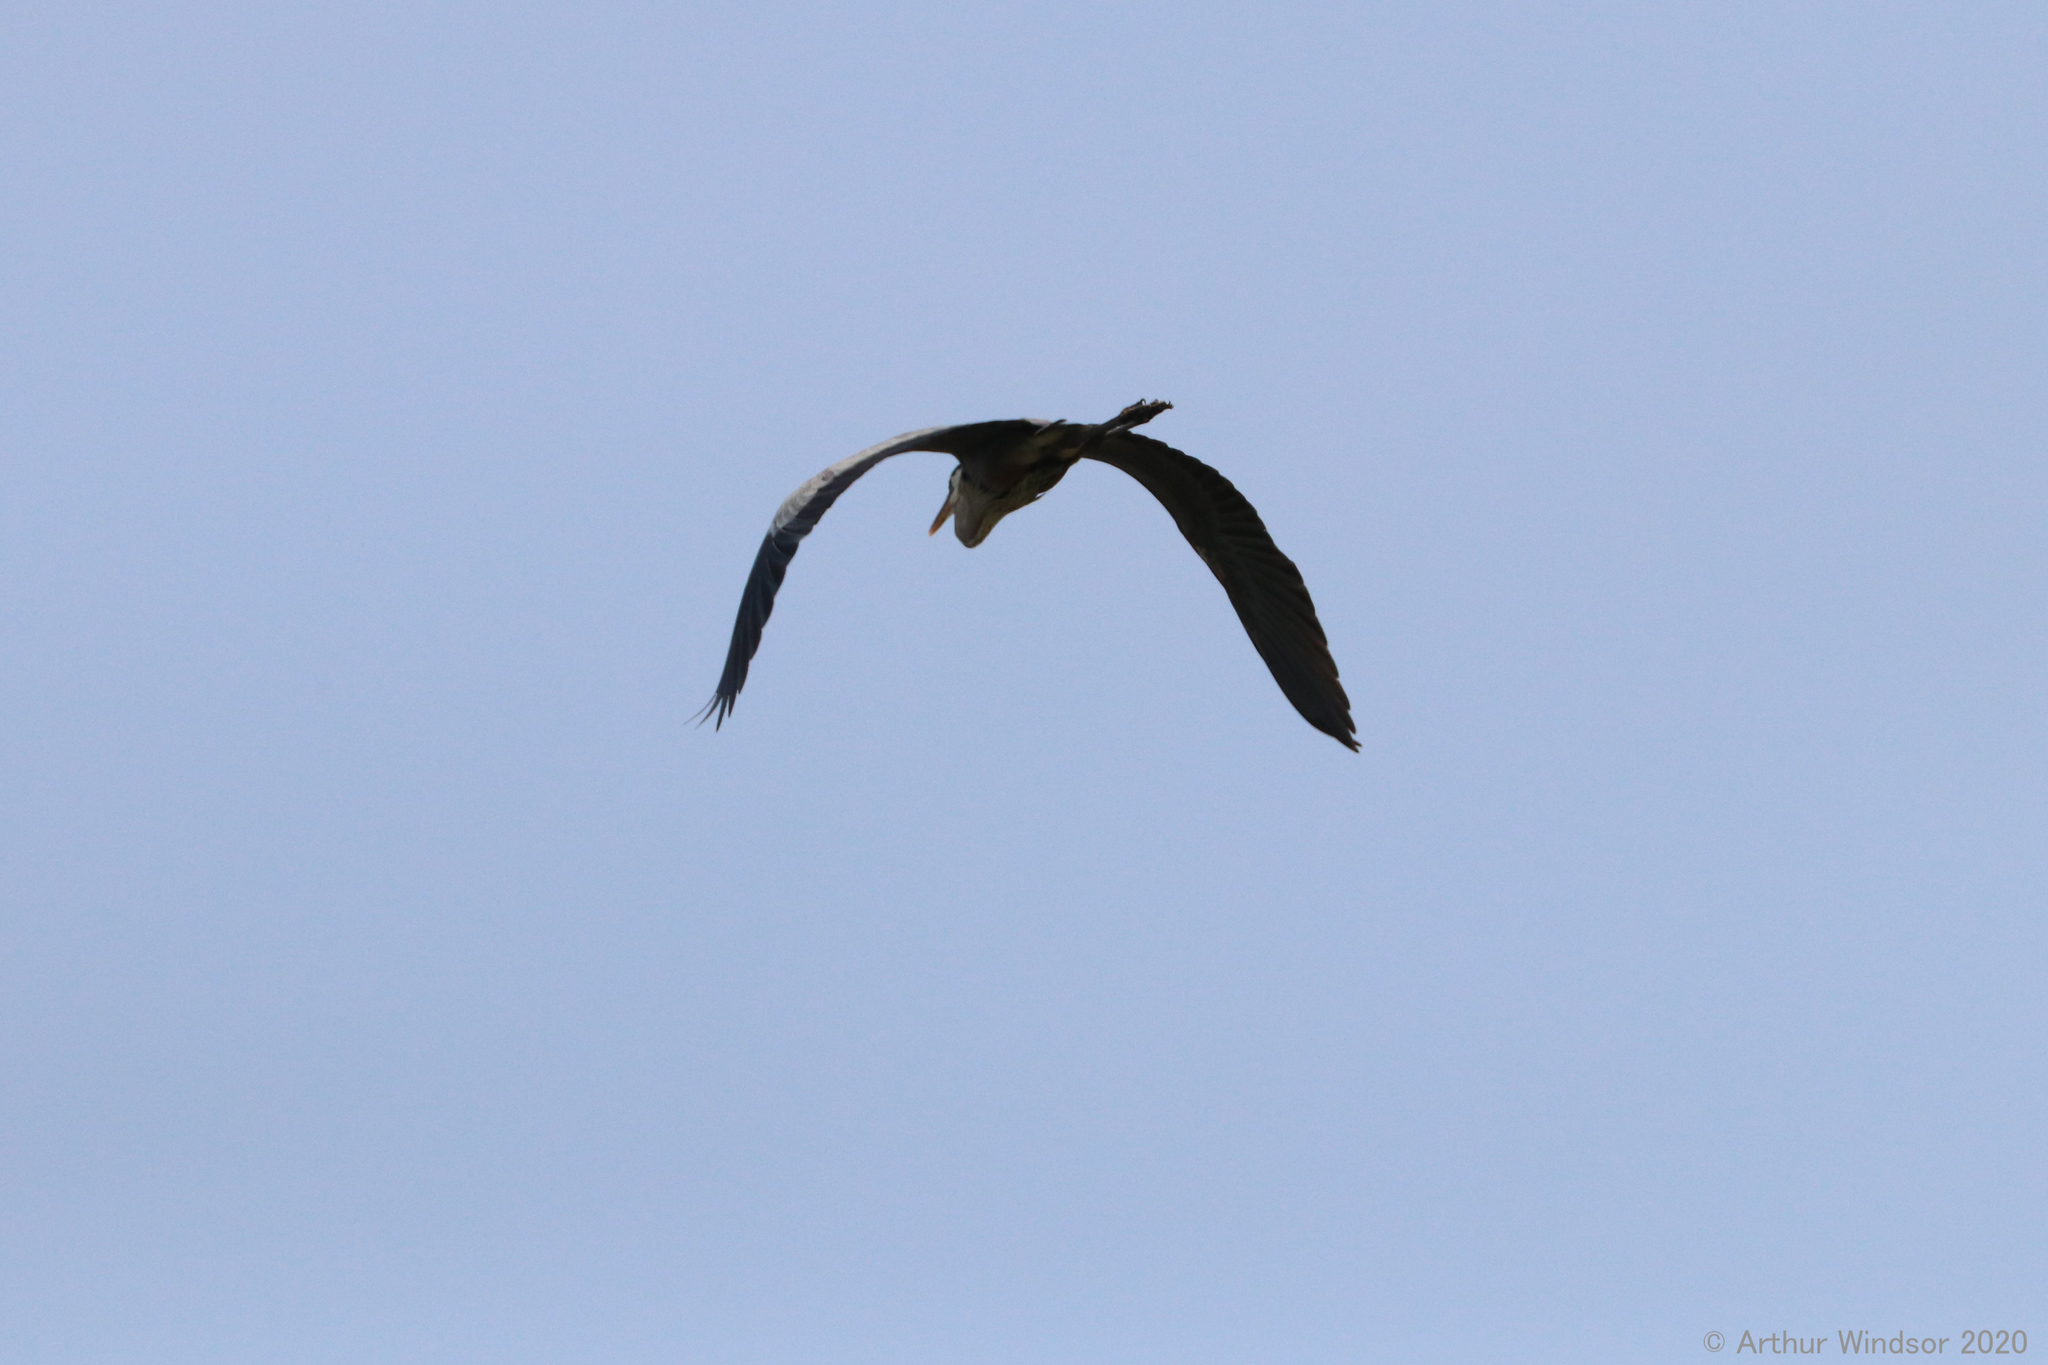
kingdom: Animalia
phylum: Chordata
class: Aves
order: Pelecaniformes
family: Ardeidae
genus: Ardea
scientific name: Ardea herodias
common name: Great blue heron
